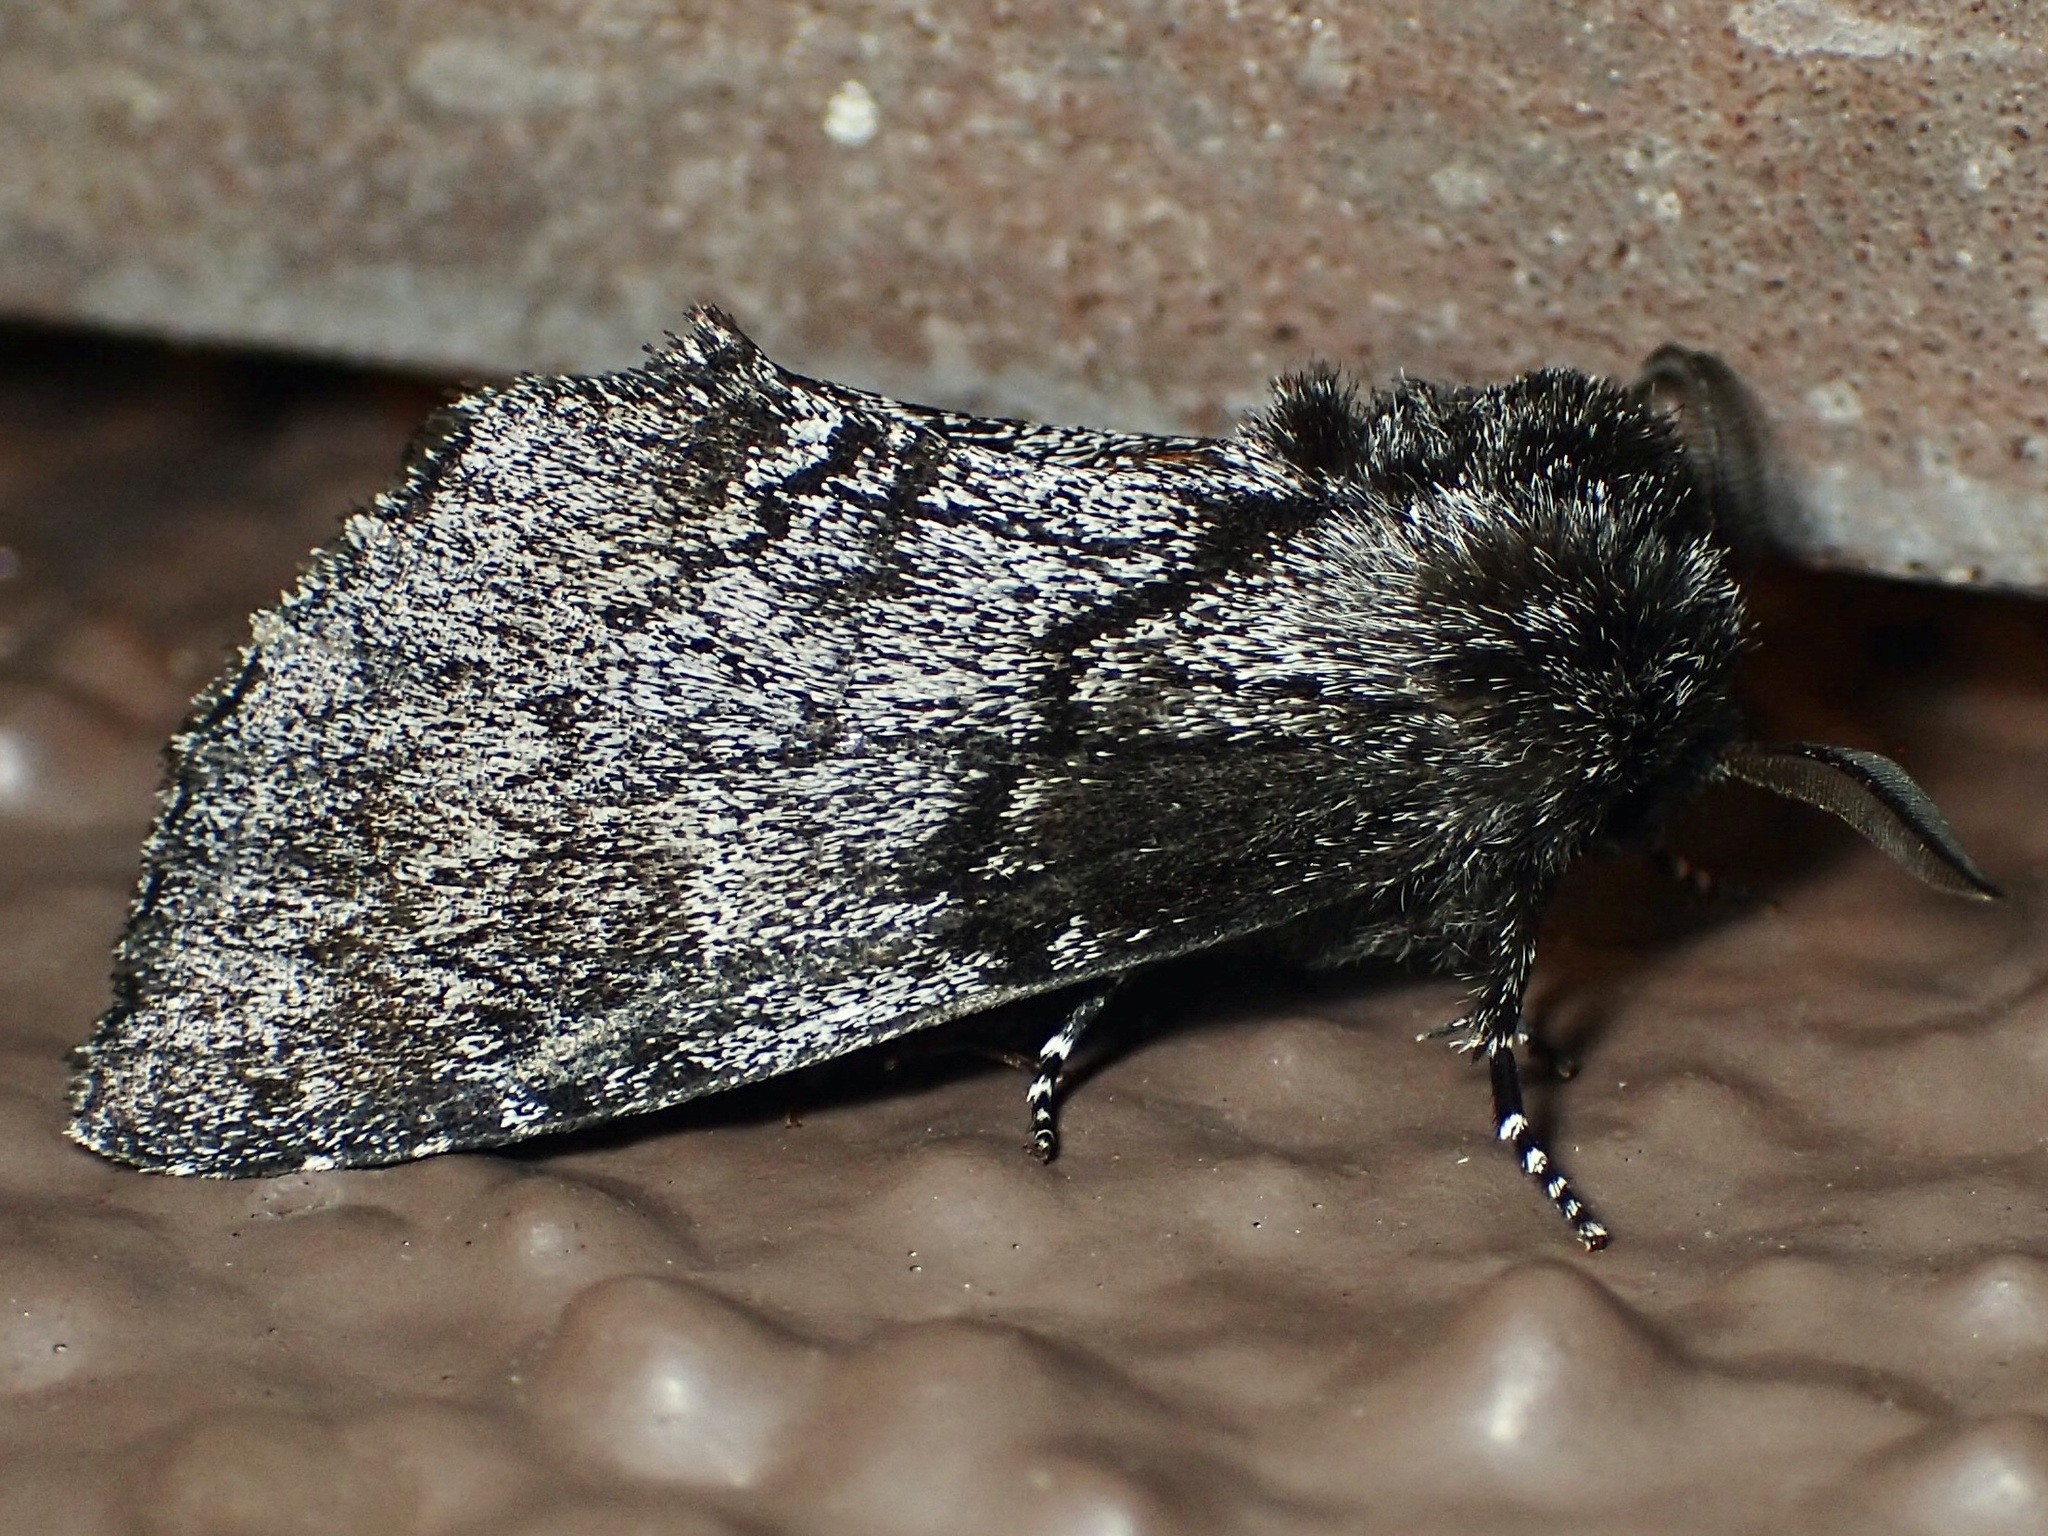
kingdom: Animalia
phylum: Arthropoda
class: Insecta
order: Lepidoptera
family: Notodontidae
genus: Cargida
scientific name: Cargida pyrrha
